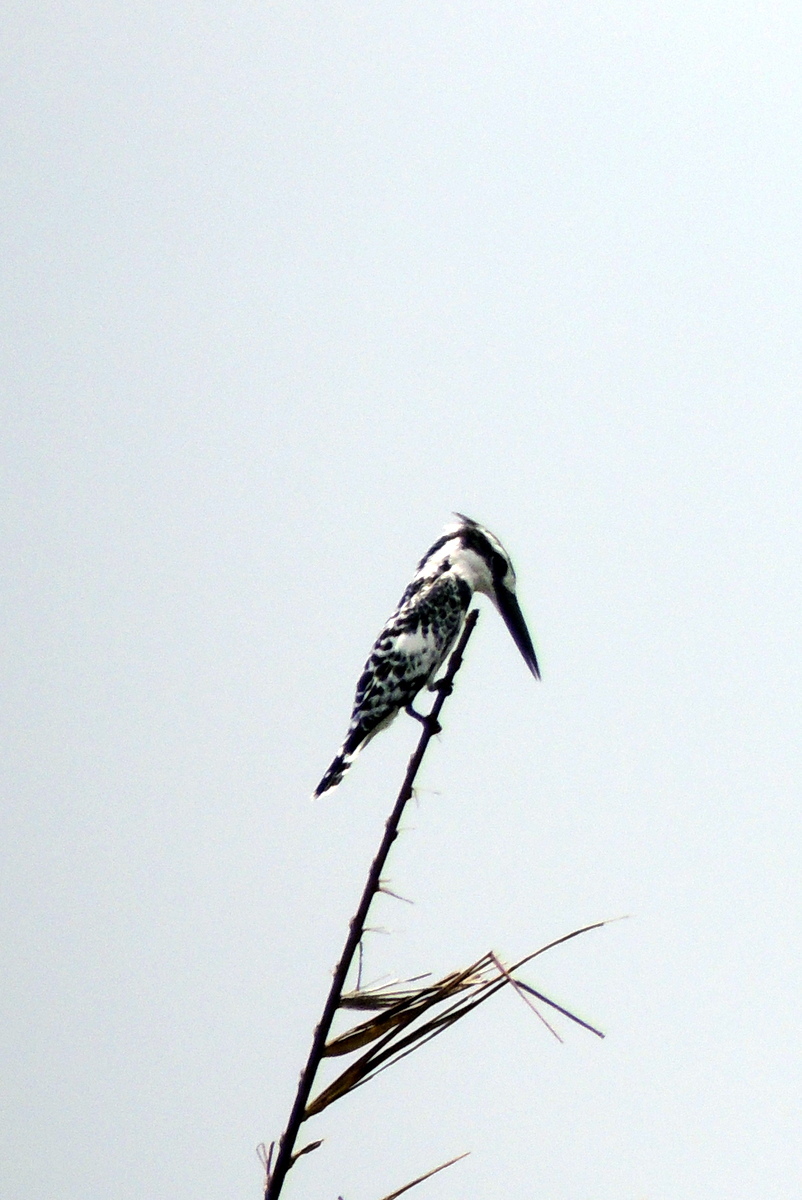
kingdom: Animalia
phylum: Chordata
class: Aves
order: Coraciiformes
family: Alcedinidae
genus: Ceryle
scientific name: Ceryle rudis
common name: Pied kingfisher
